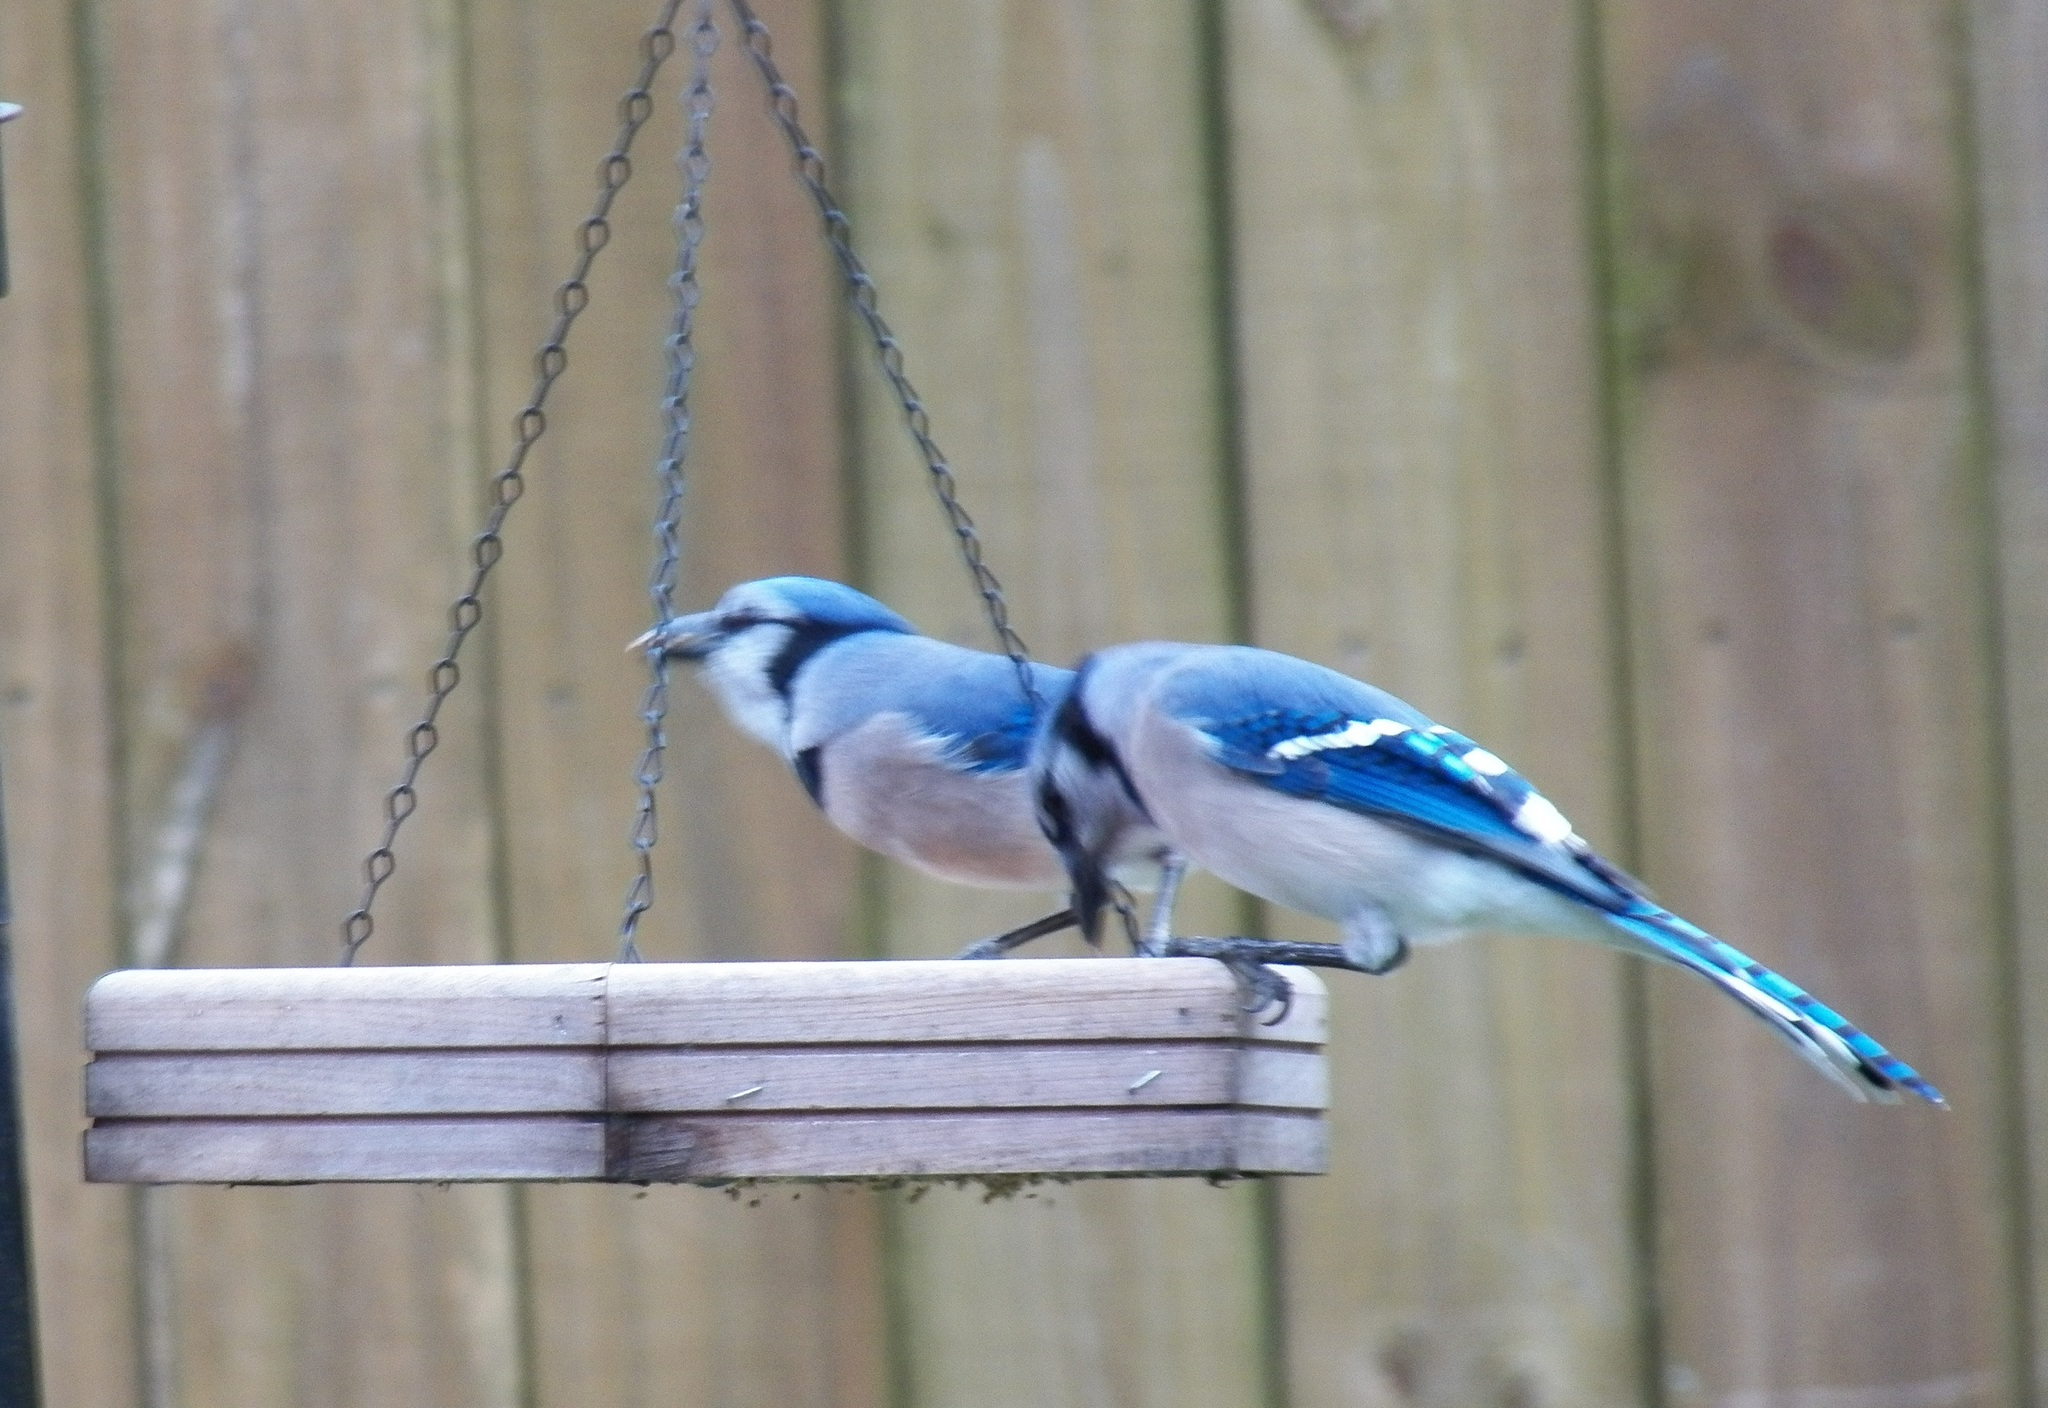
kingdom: Animalia
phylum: Chordata
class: Aves
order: Passeriformes
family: Corvidae
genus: Cyanocitta
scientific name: Cyanocitta cristata
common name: Blue jay
